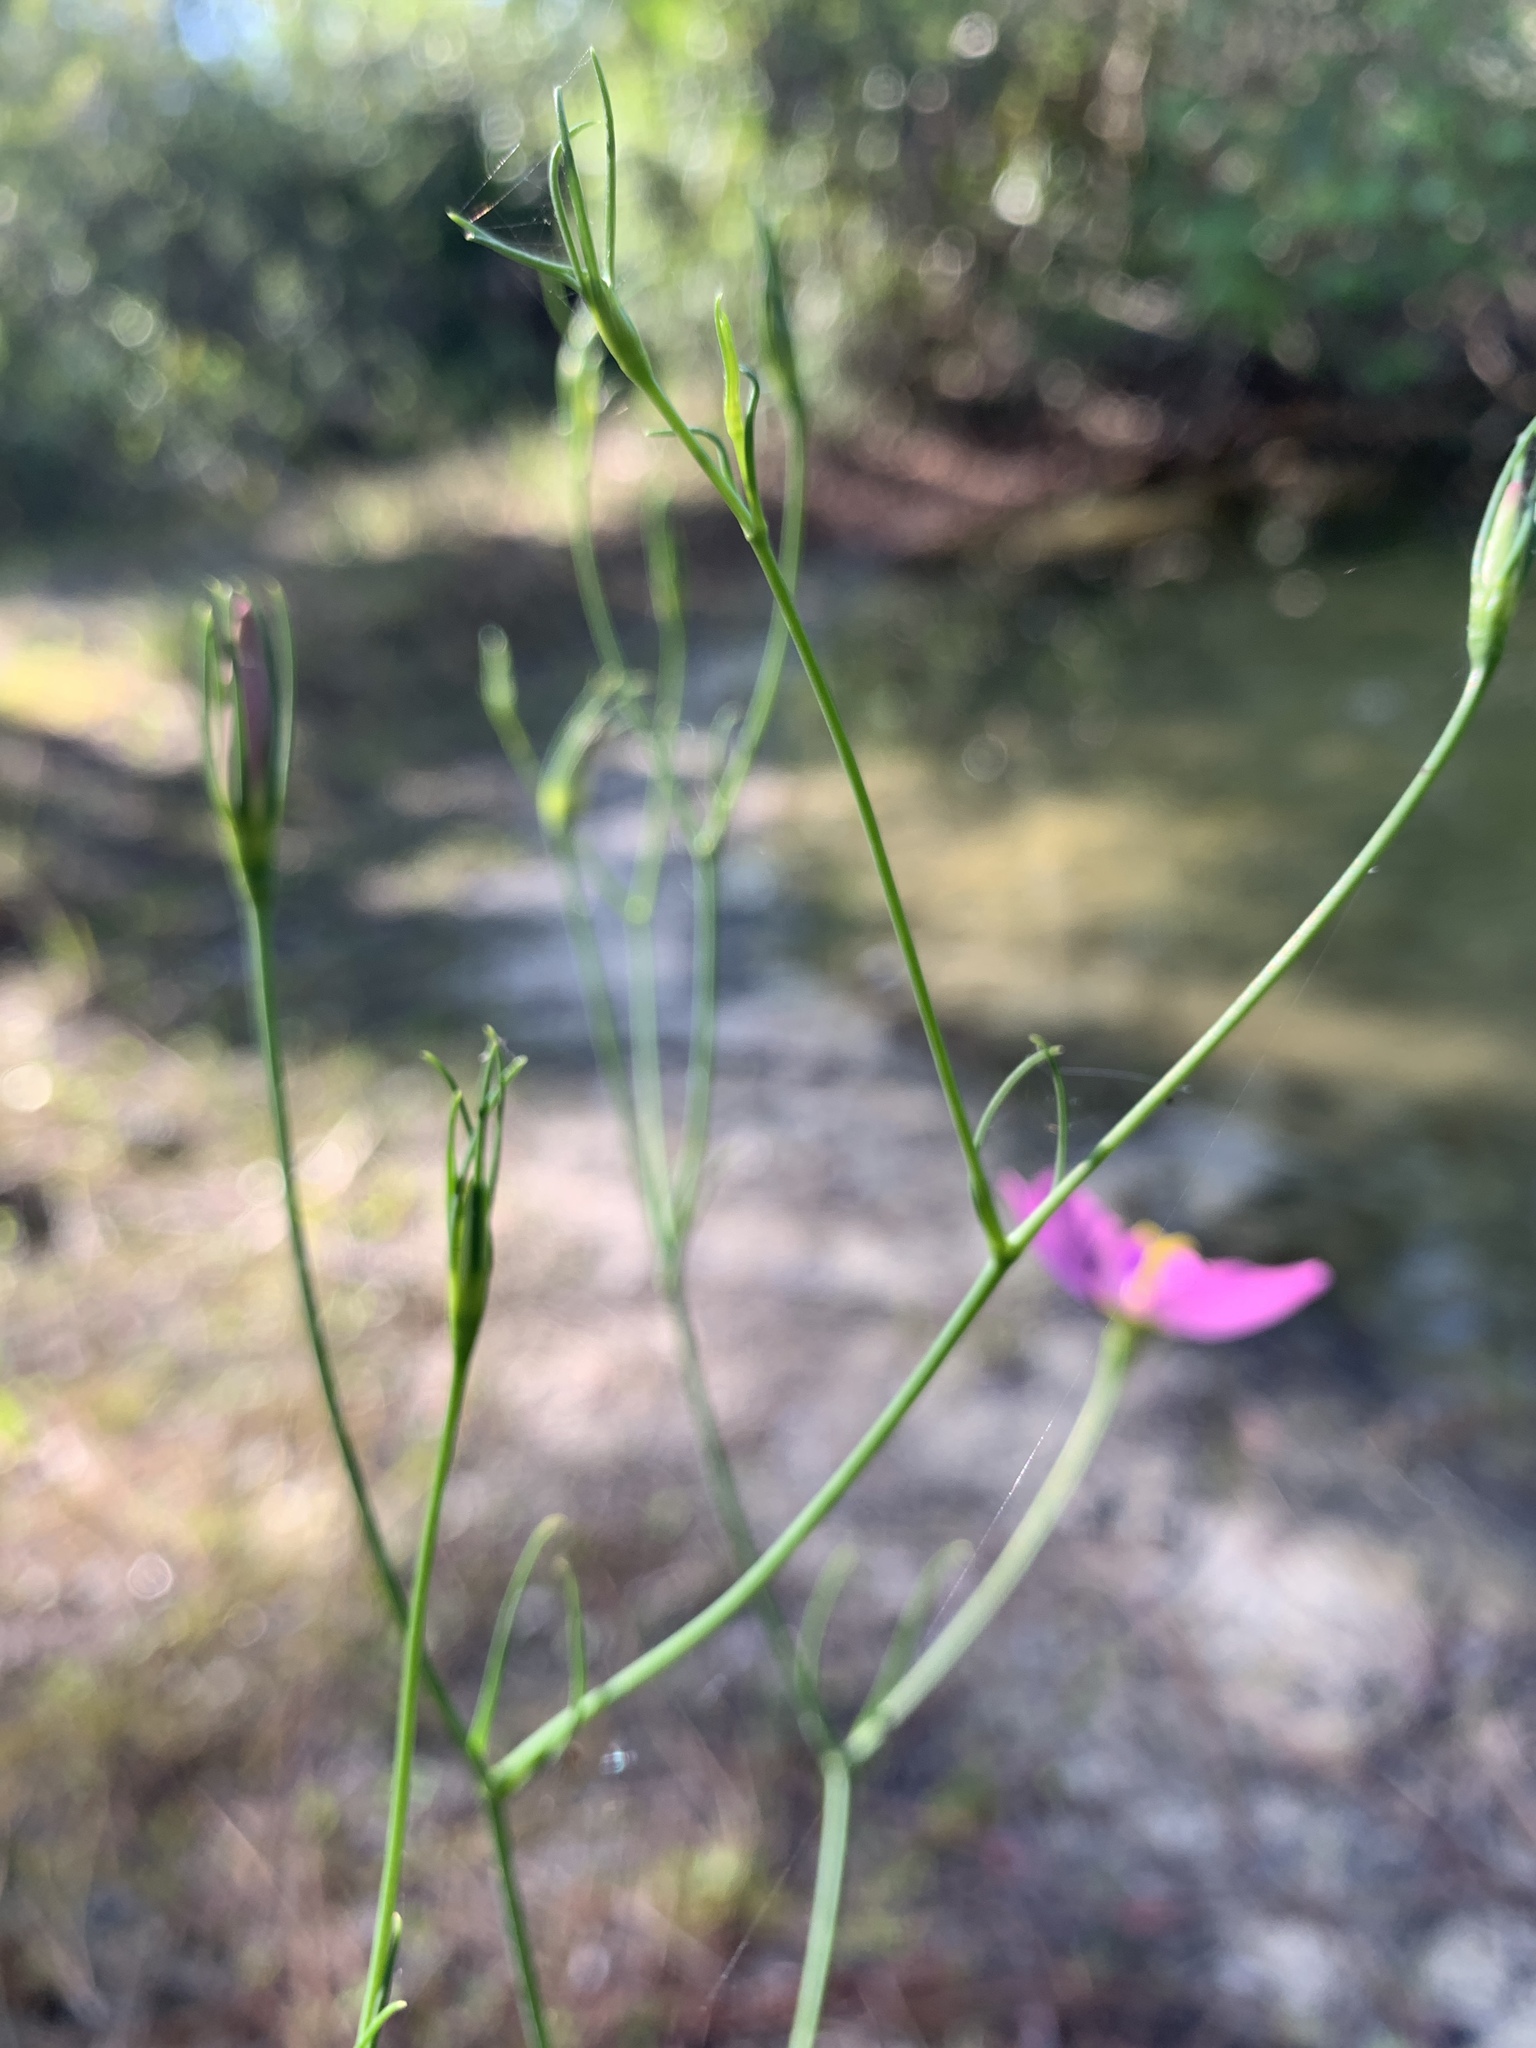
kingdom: Plantae
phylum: Tracheophyta
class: Magnoliopsida
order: Gentianales
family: Gentianaceae
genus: Sabatia
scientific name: Sabatia grandiflora
